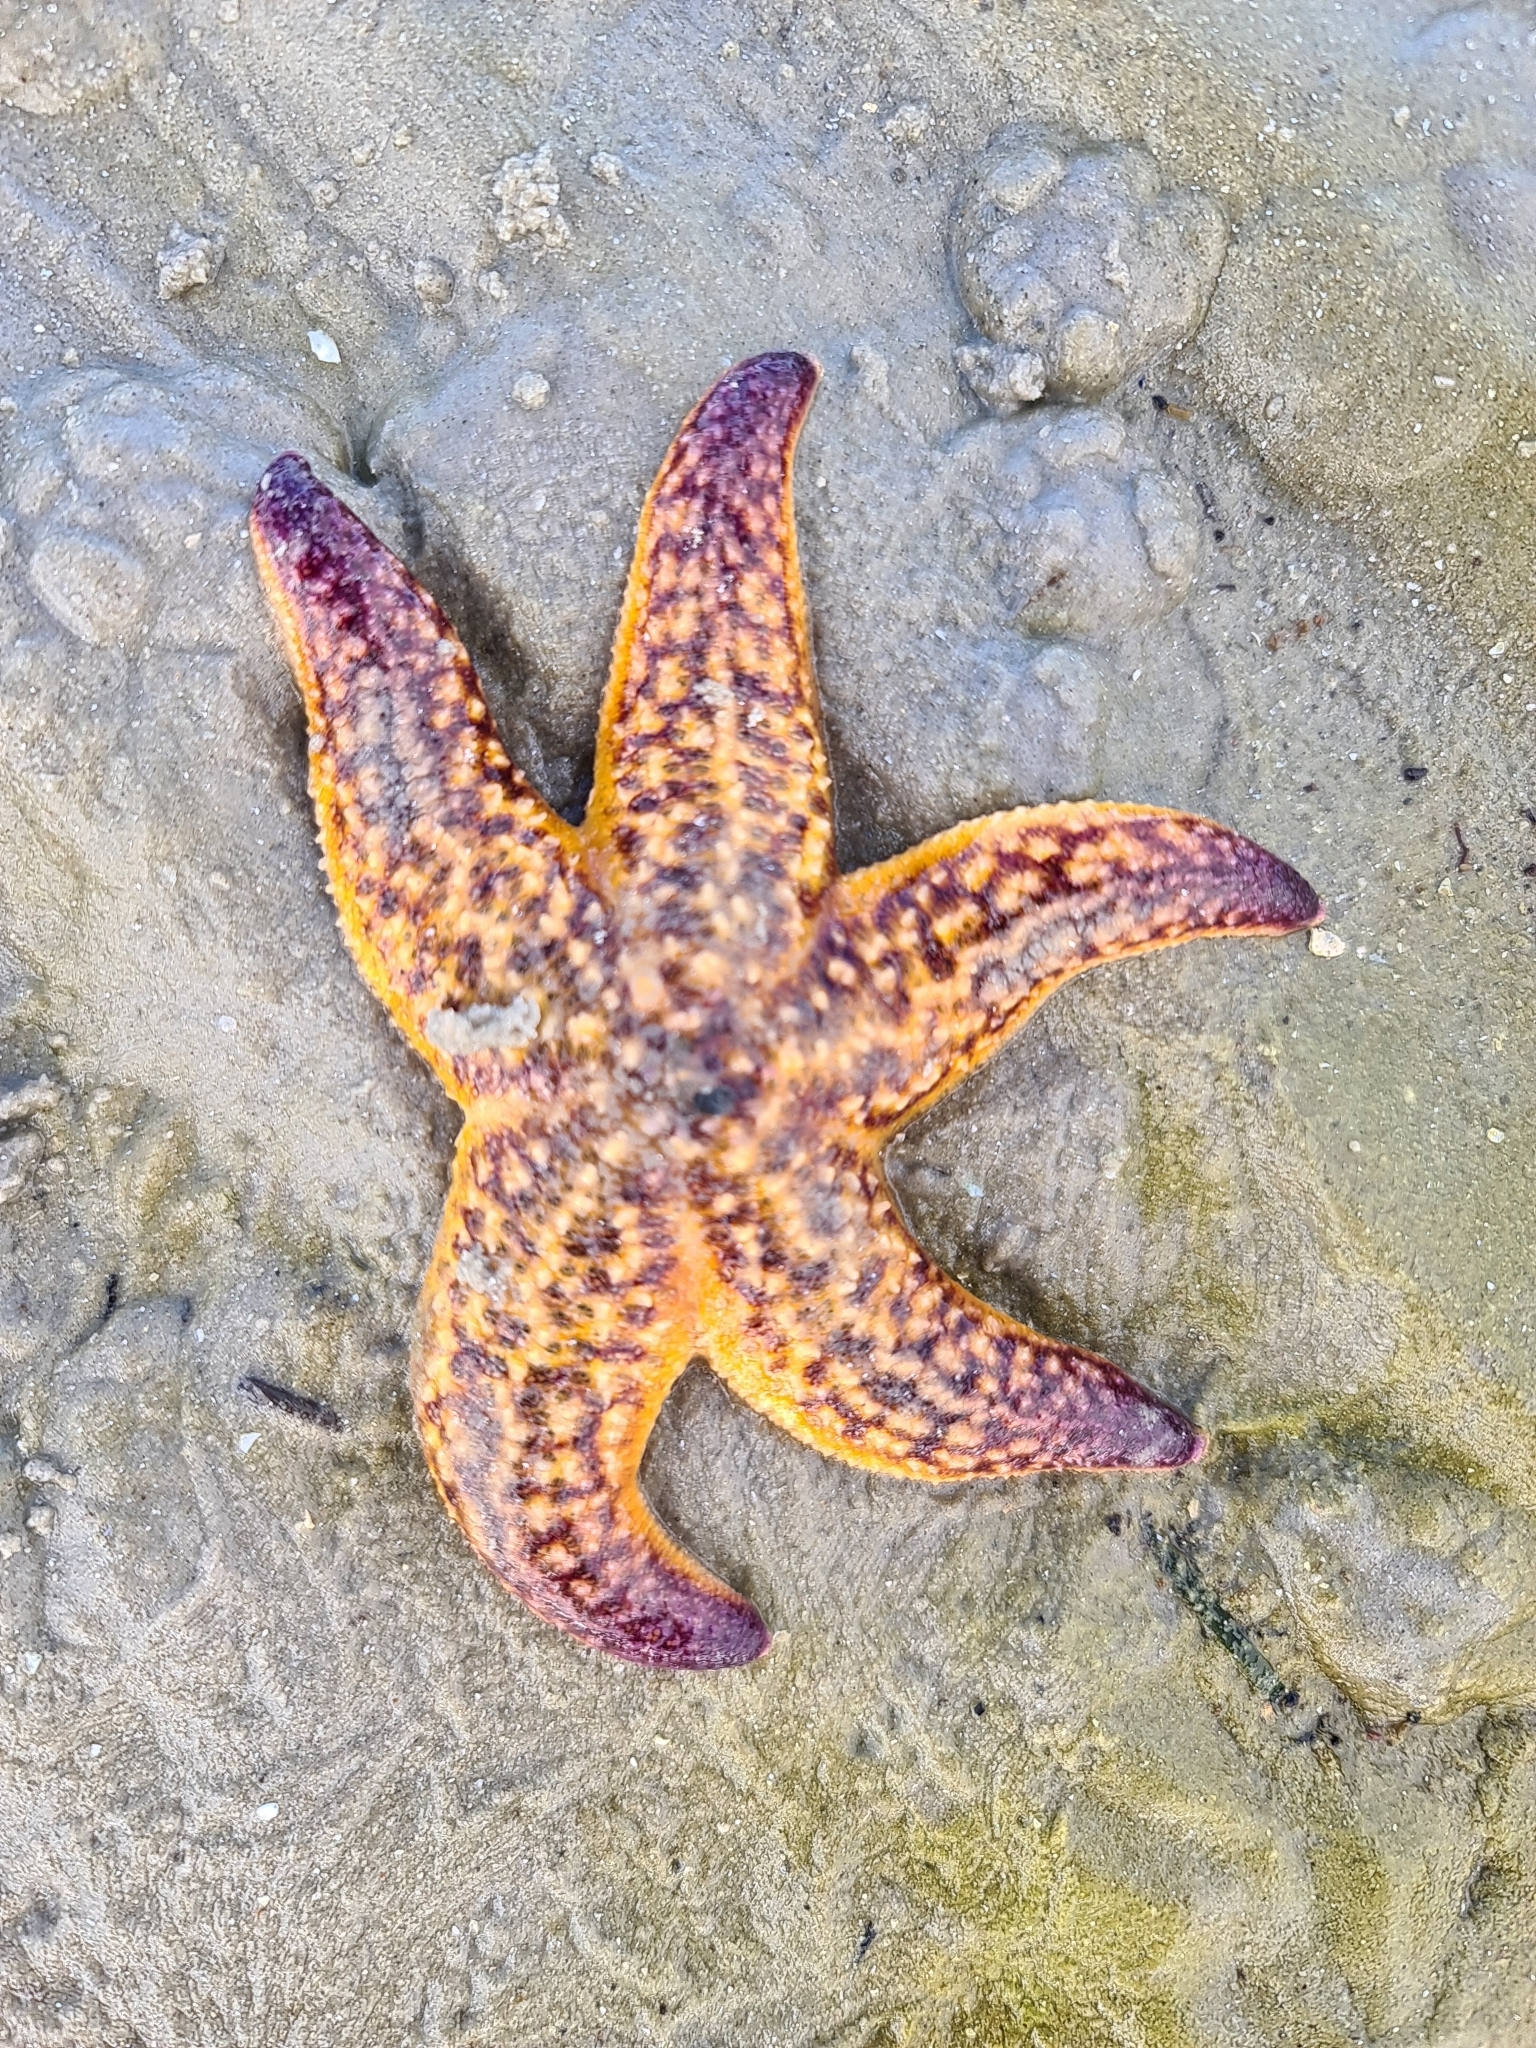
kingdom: Animalia
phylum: Echinodermata
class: Asteroidea
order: Forcipulatida
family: Asteriidae
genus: Asterias
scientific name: Asterias amurensis
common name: Flat-bottomed star
